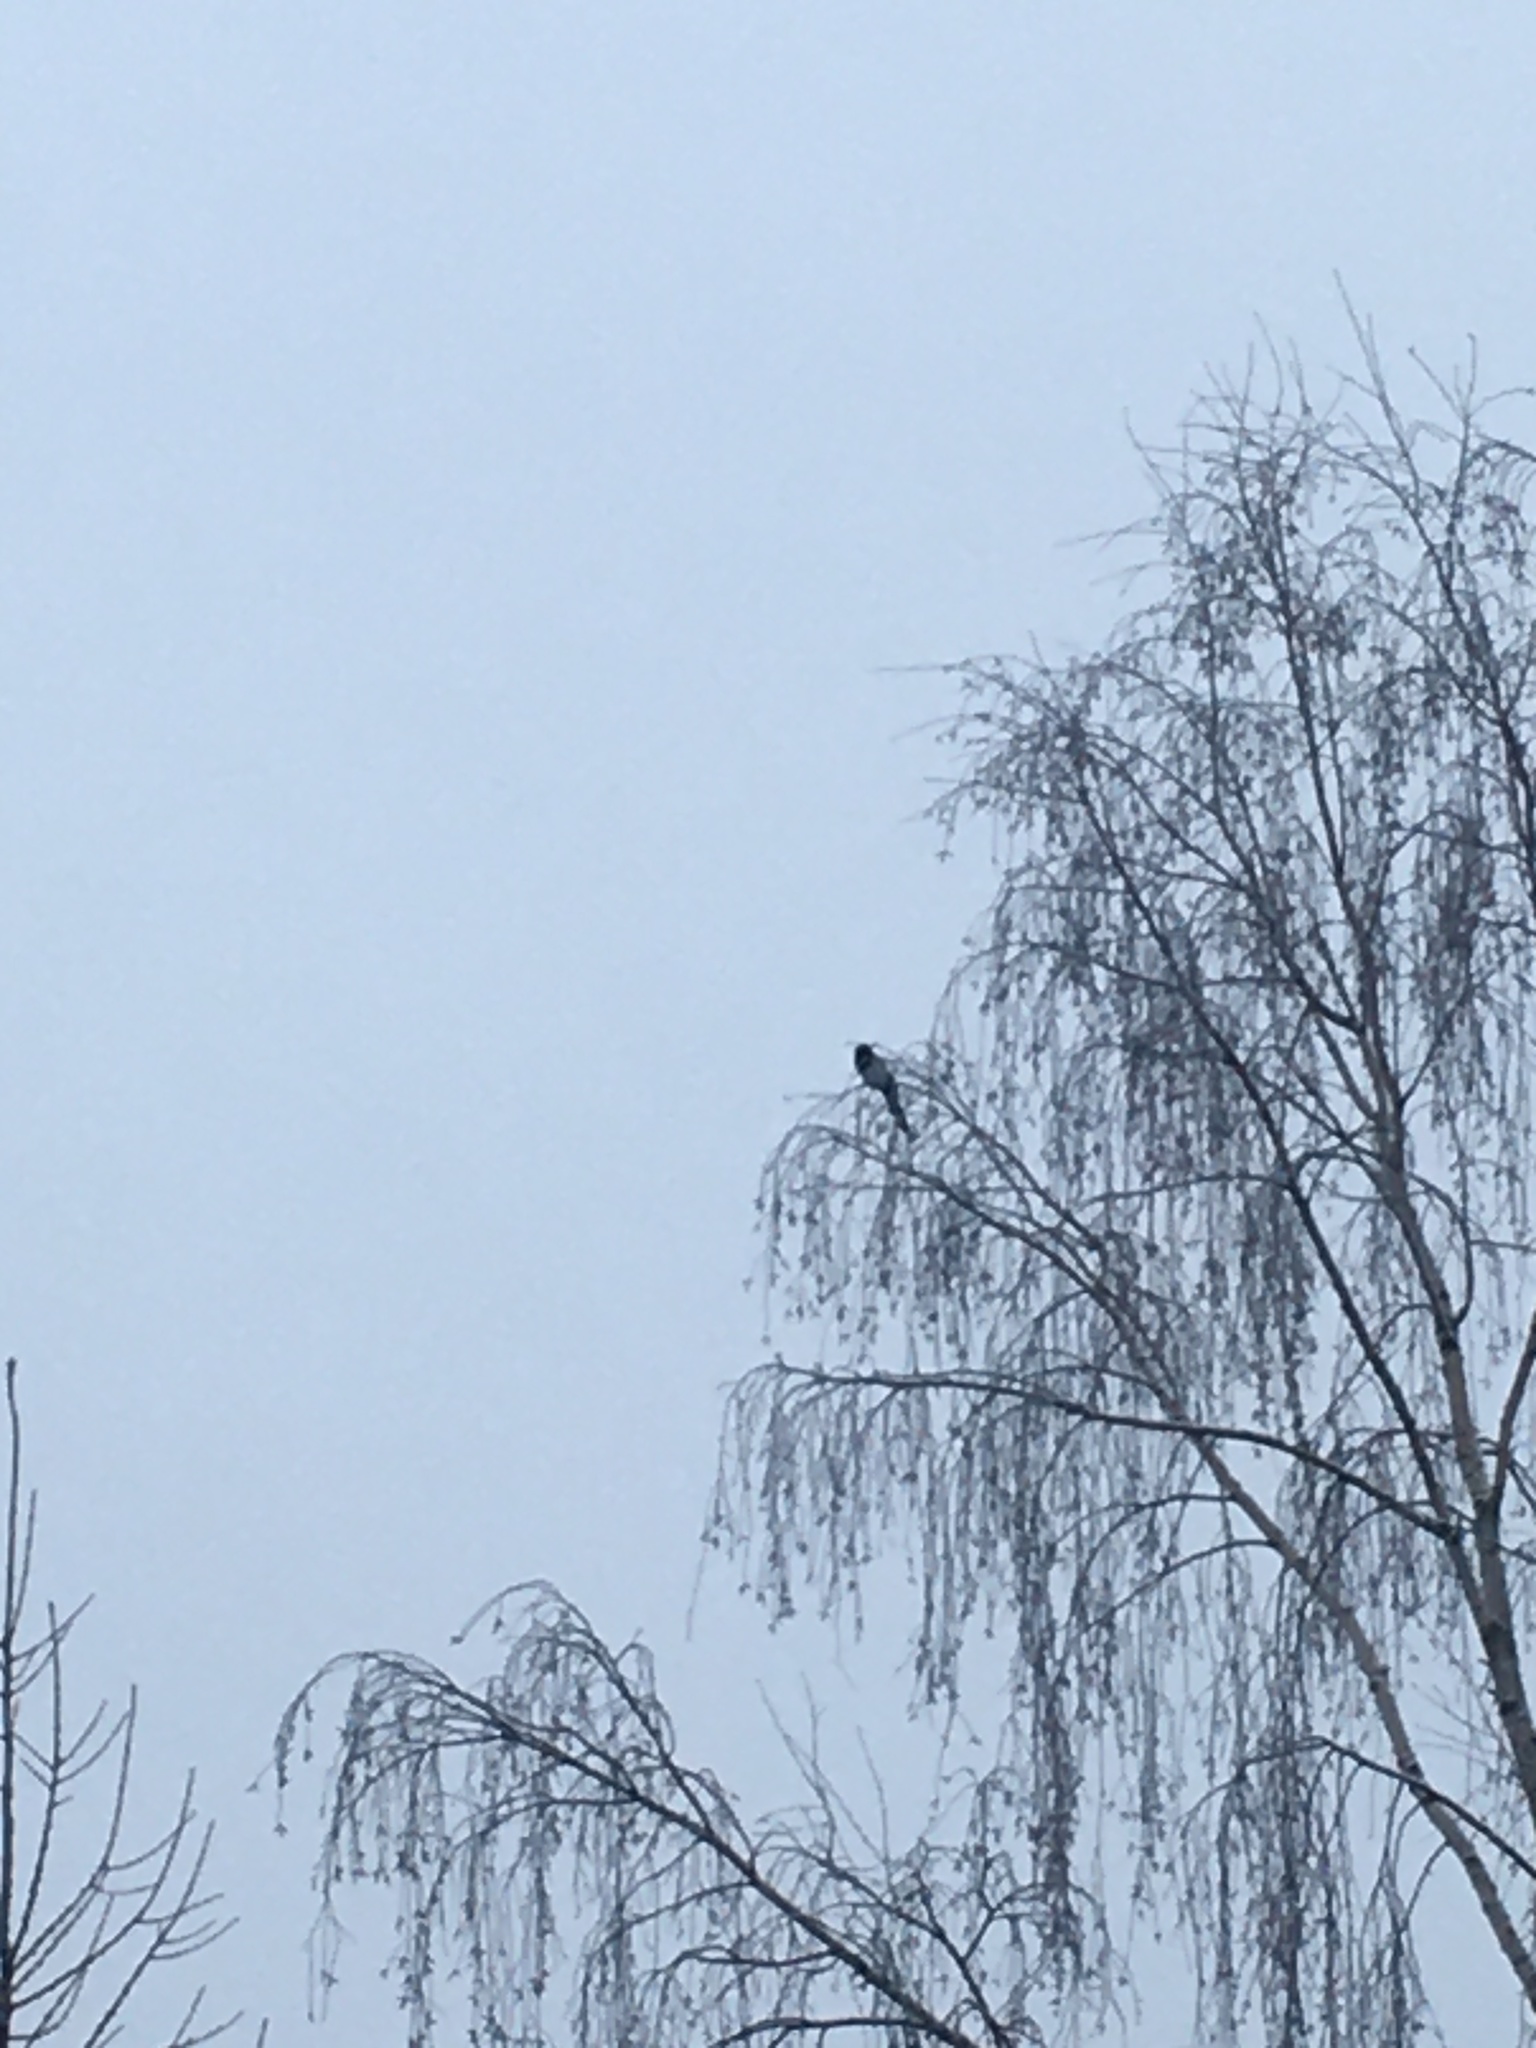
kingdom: Animalia
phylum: Chordata
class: Aves
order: Passeriformes
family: Corvidae
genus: Pica
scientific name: Pica pica
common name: Eurasian magpie
